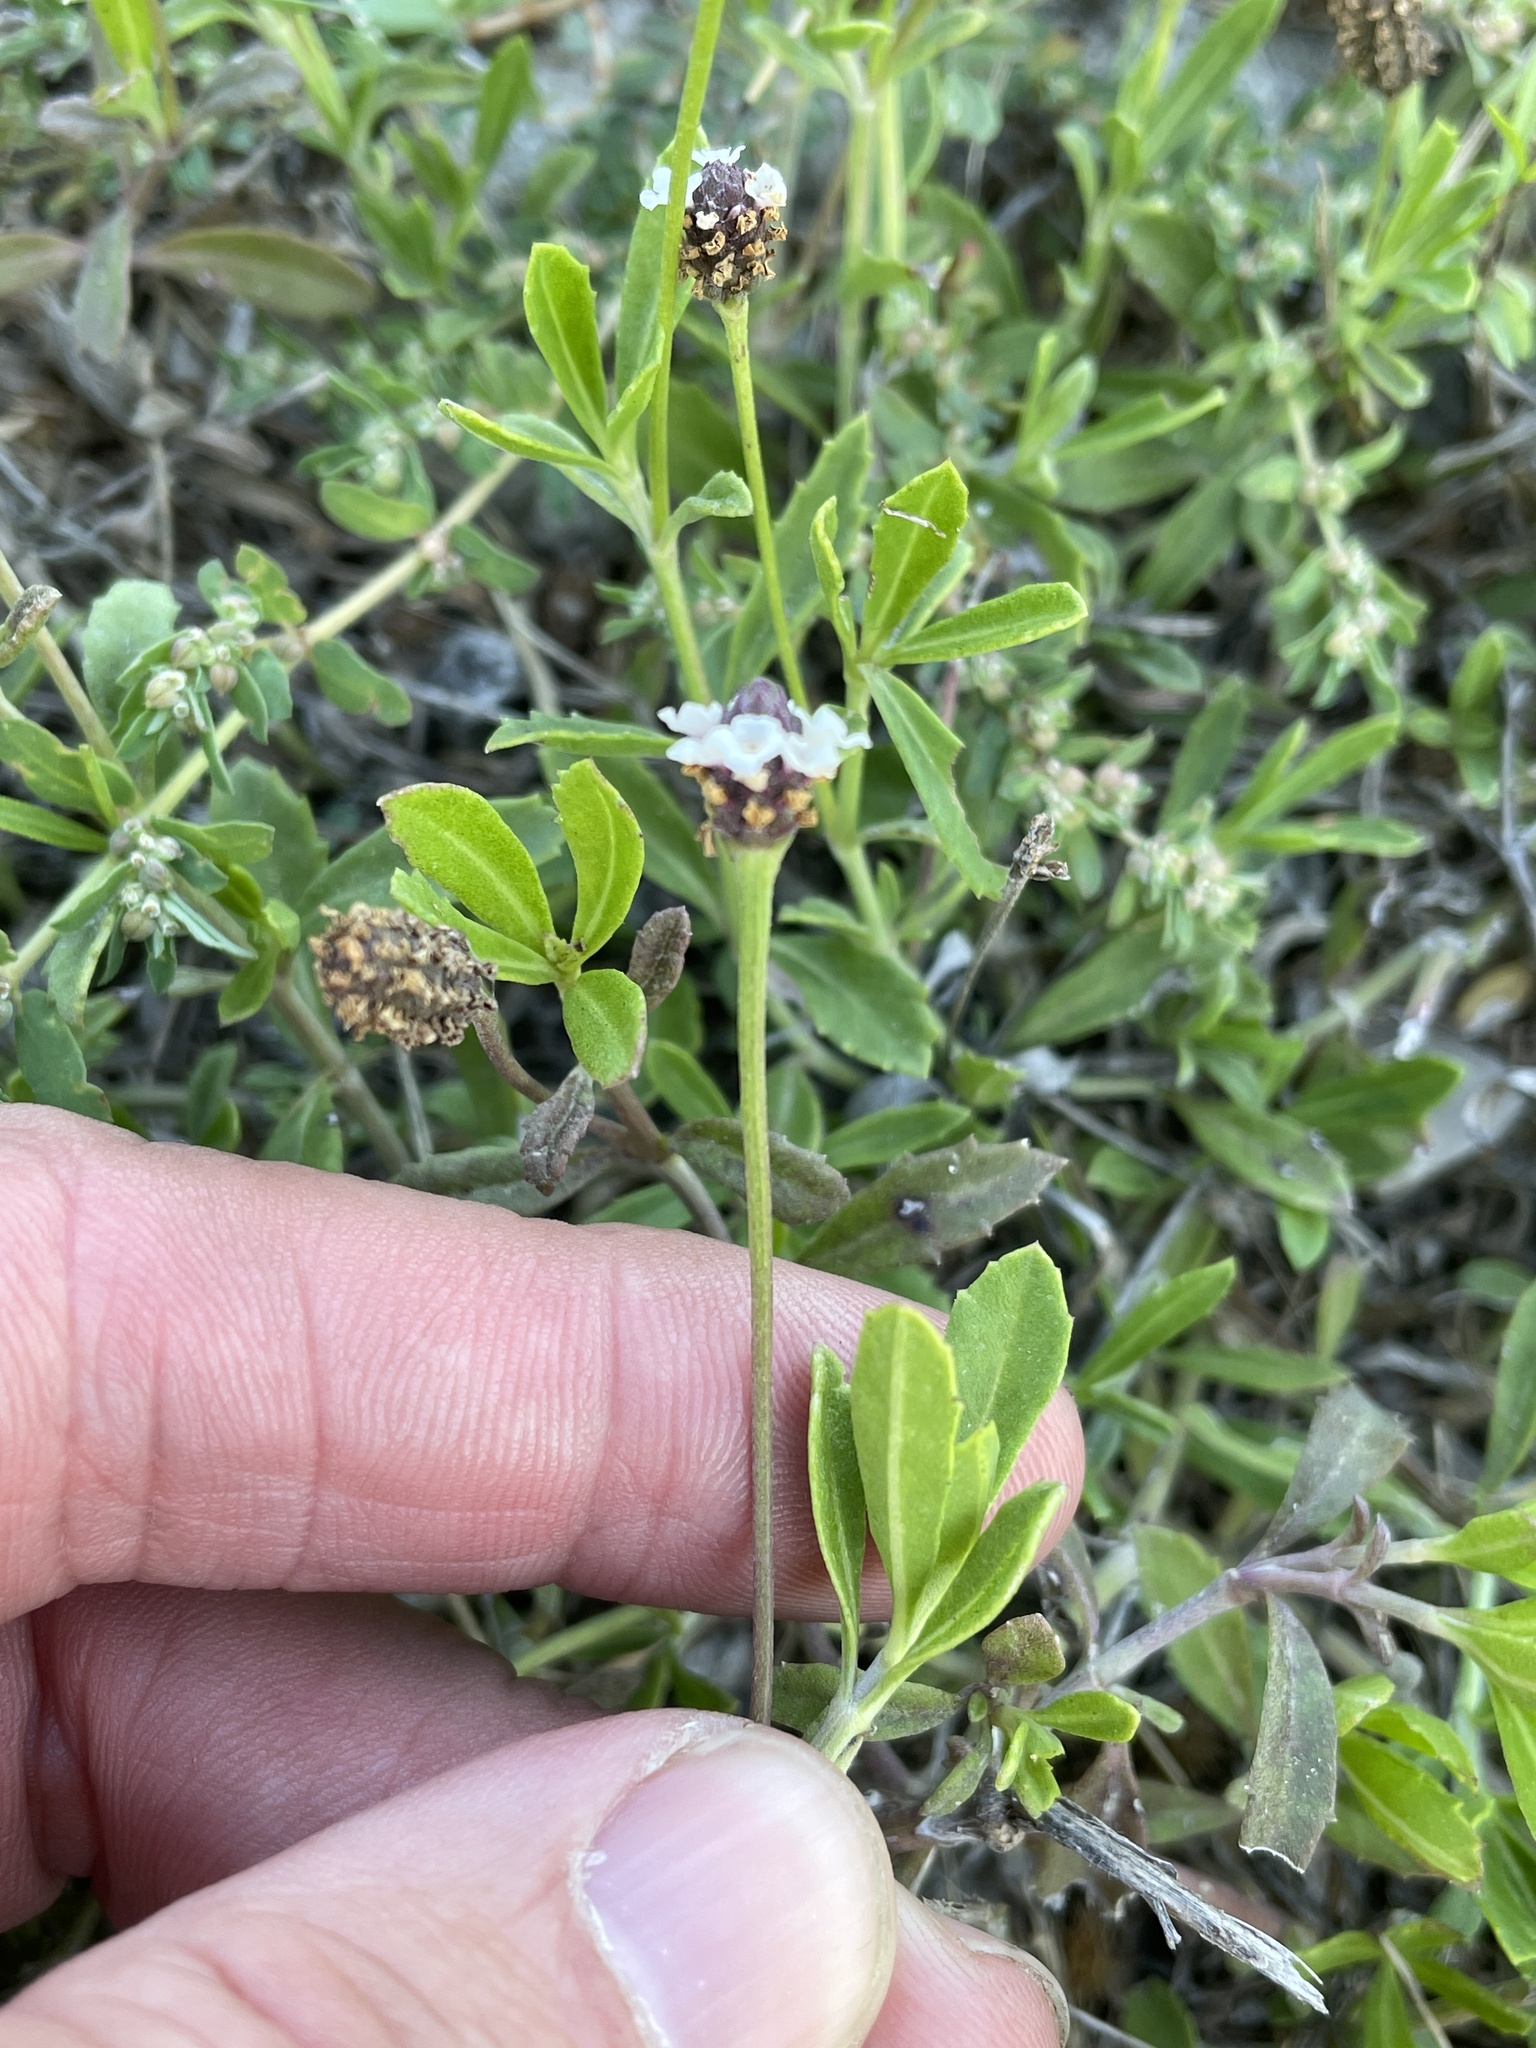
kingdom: Plantae
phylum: Tracheophyta
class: Magnoliopsida
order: Lamiales
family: Verbenaceae
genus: Phyla
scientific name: Phyla nodiflora
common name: Frogfruit
